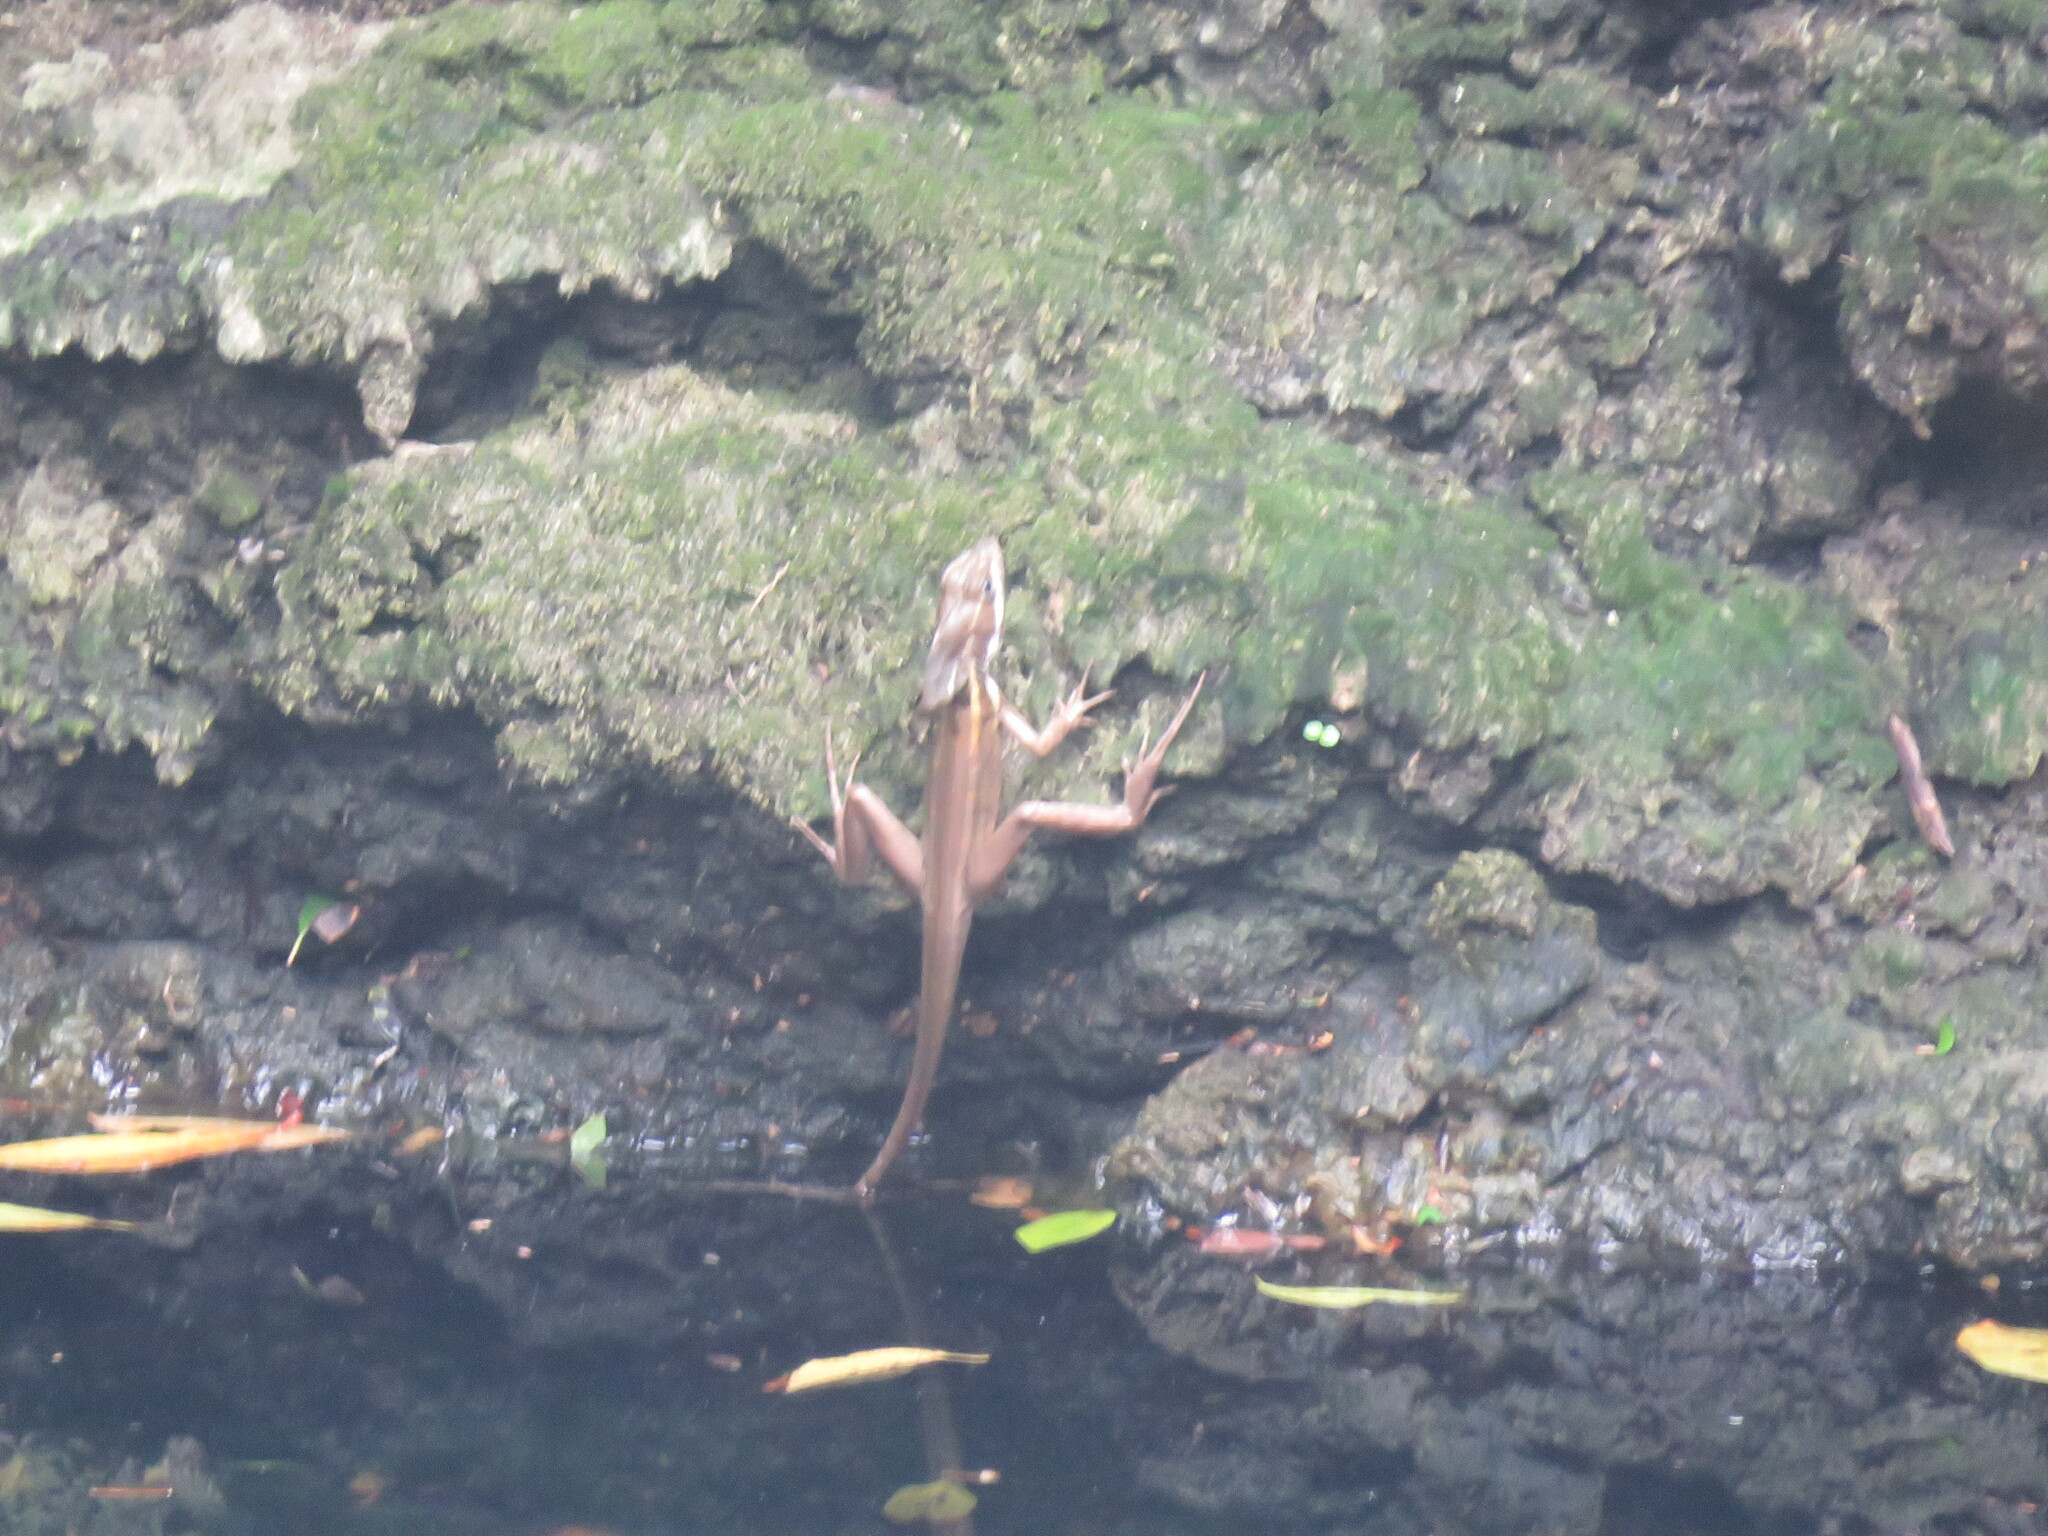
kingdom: Animalia
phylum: Chordata
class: Squamata
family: Corytophanidae
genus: Basiliscus
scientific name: Basiliscus vittatus
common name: Brown basilisk
